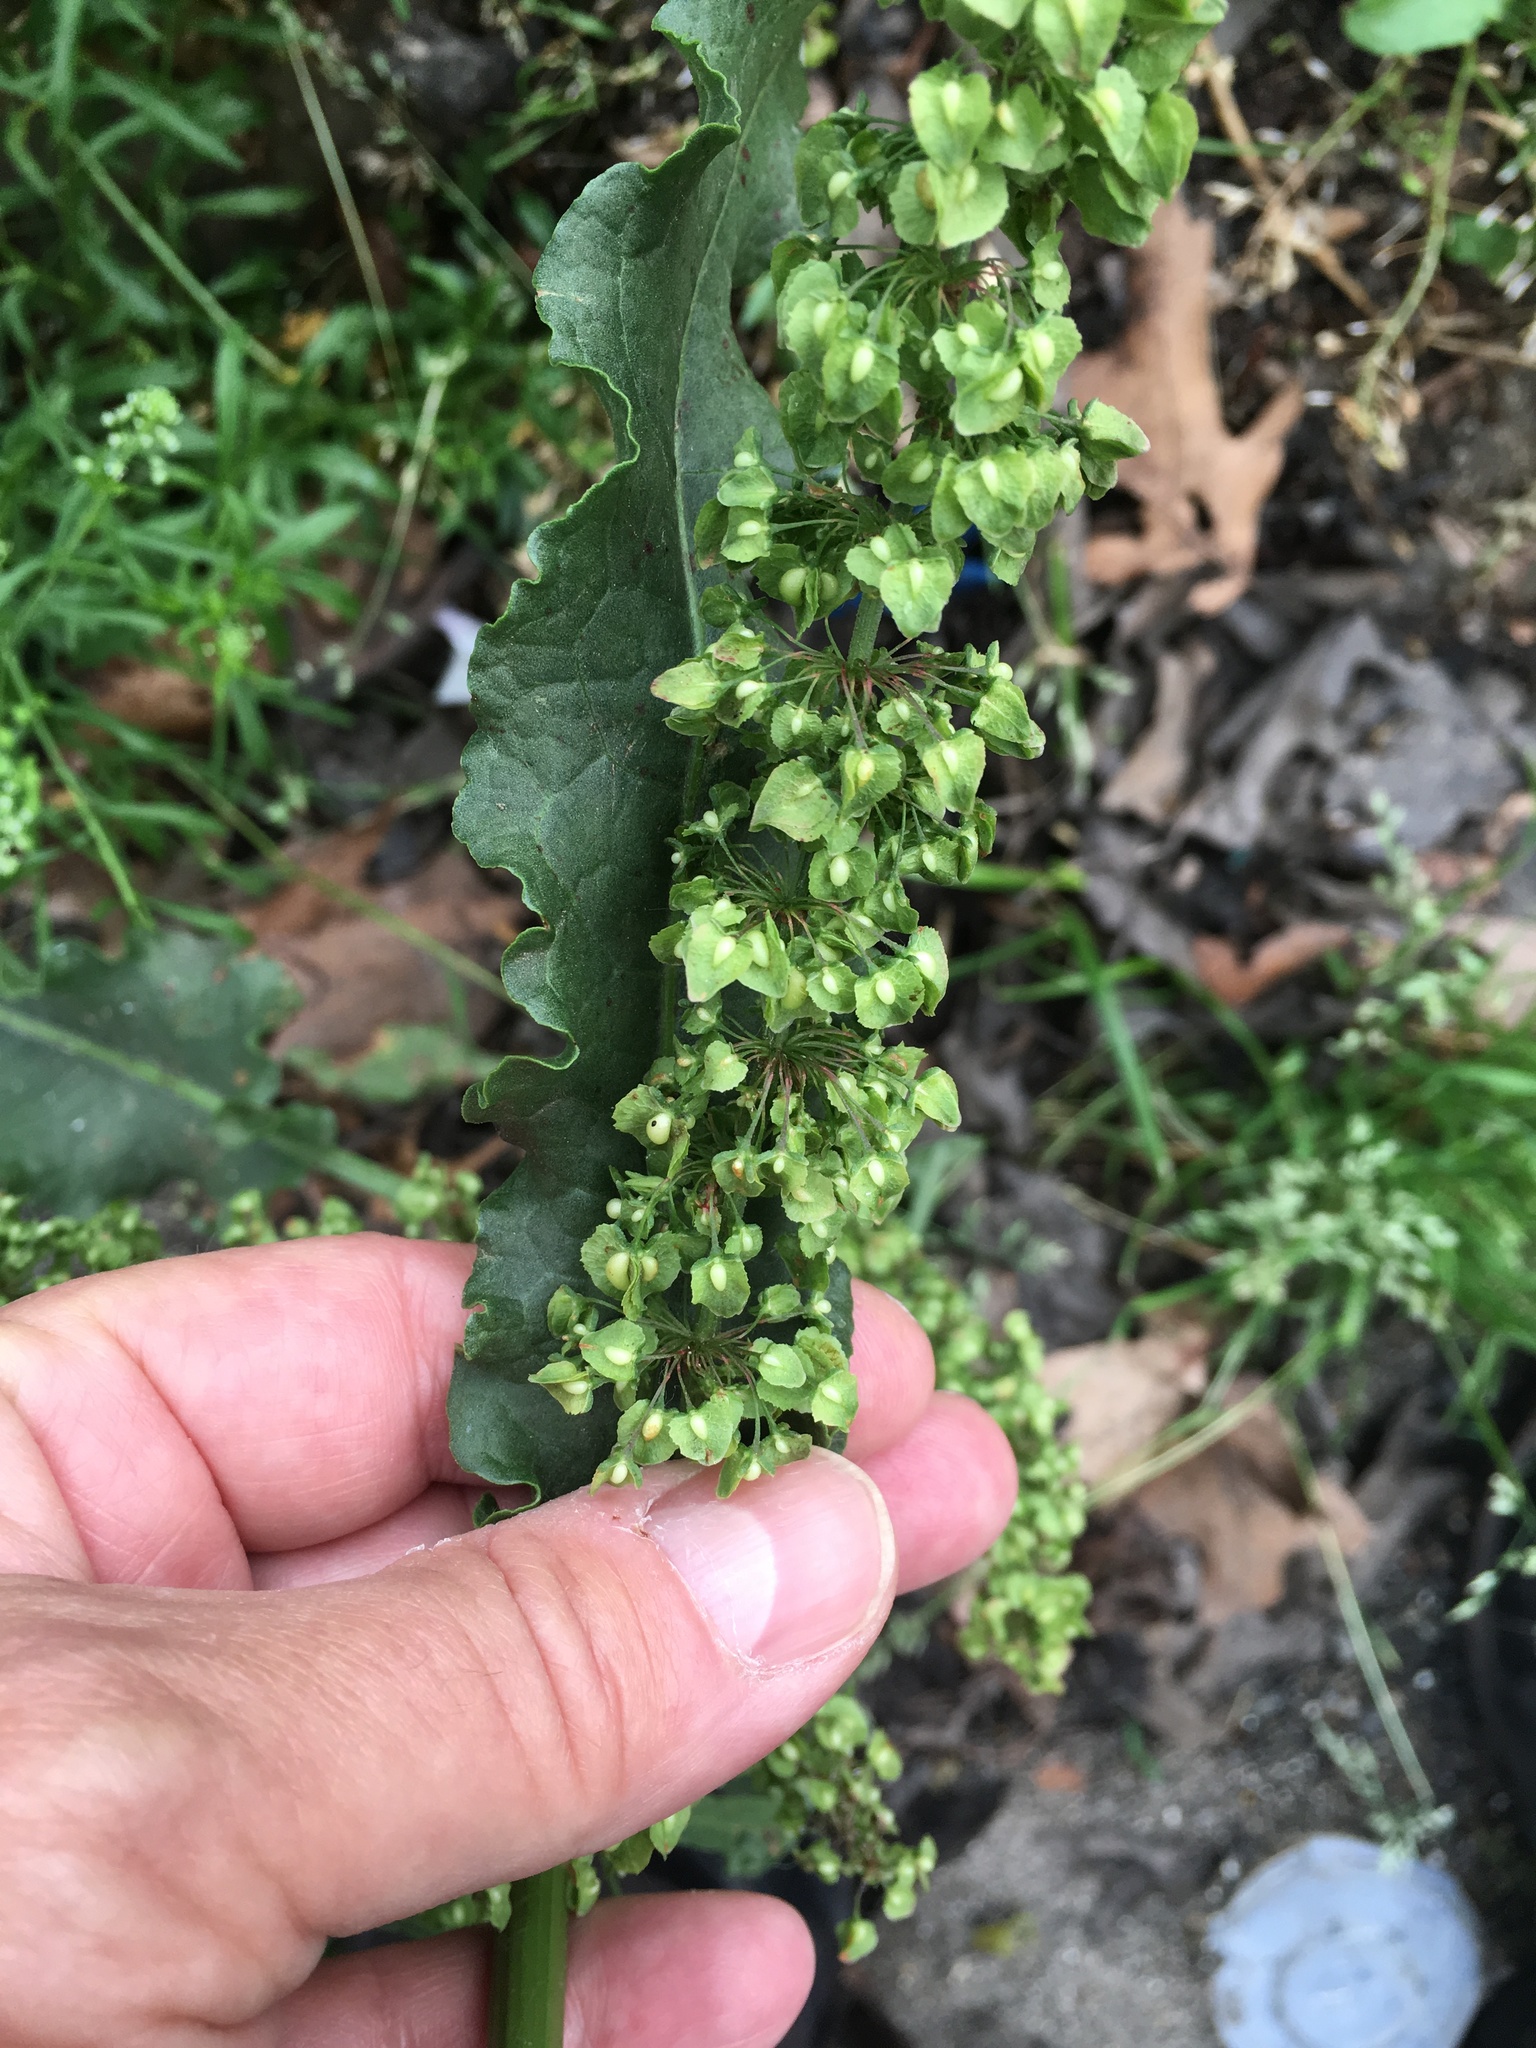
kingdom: Plantae
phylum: Tracheophyta
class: Magnoliopsida
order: Caryophyllales
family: Polygonaceae
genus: Rumex
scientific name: Rumex crispus
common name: Curled dock
